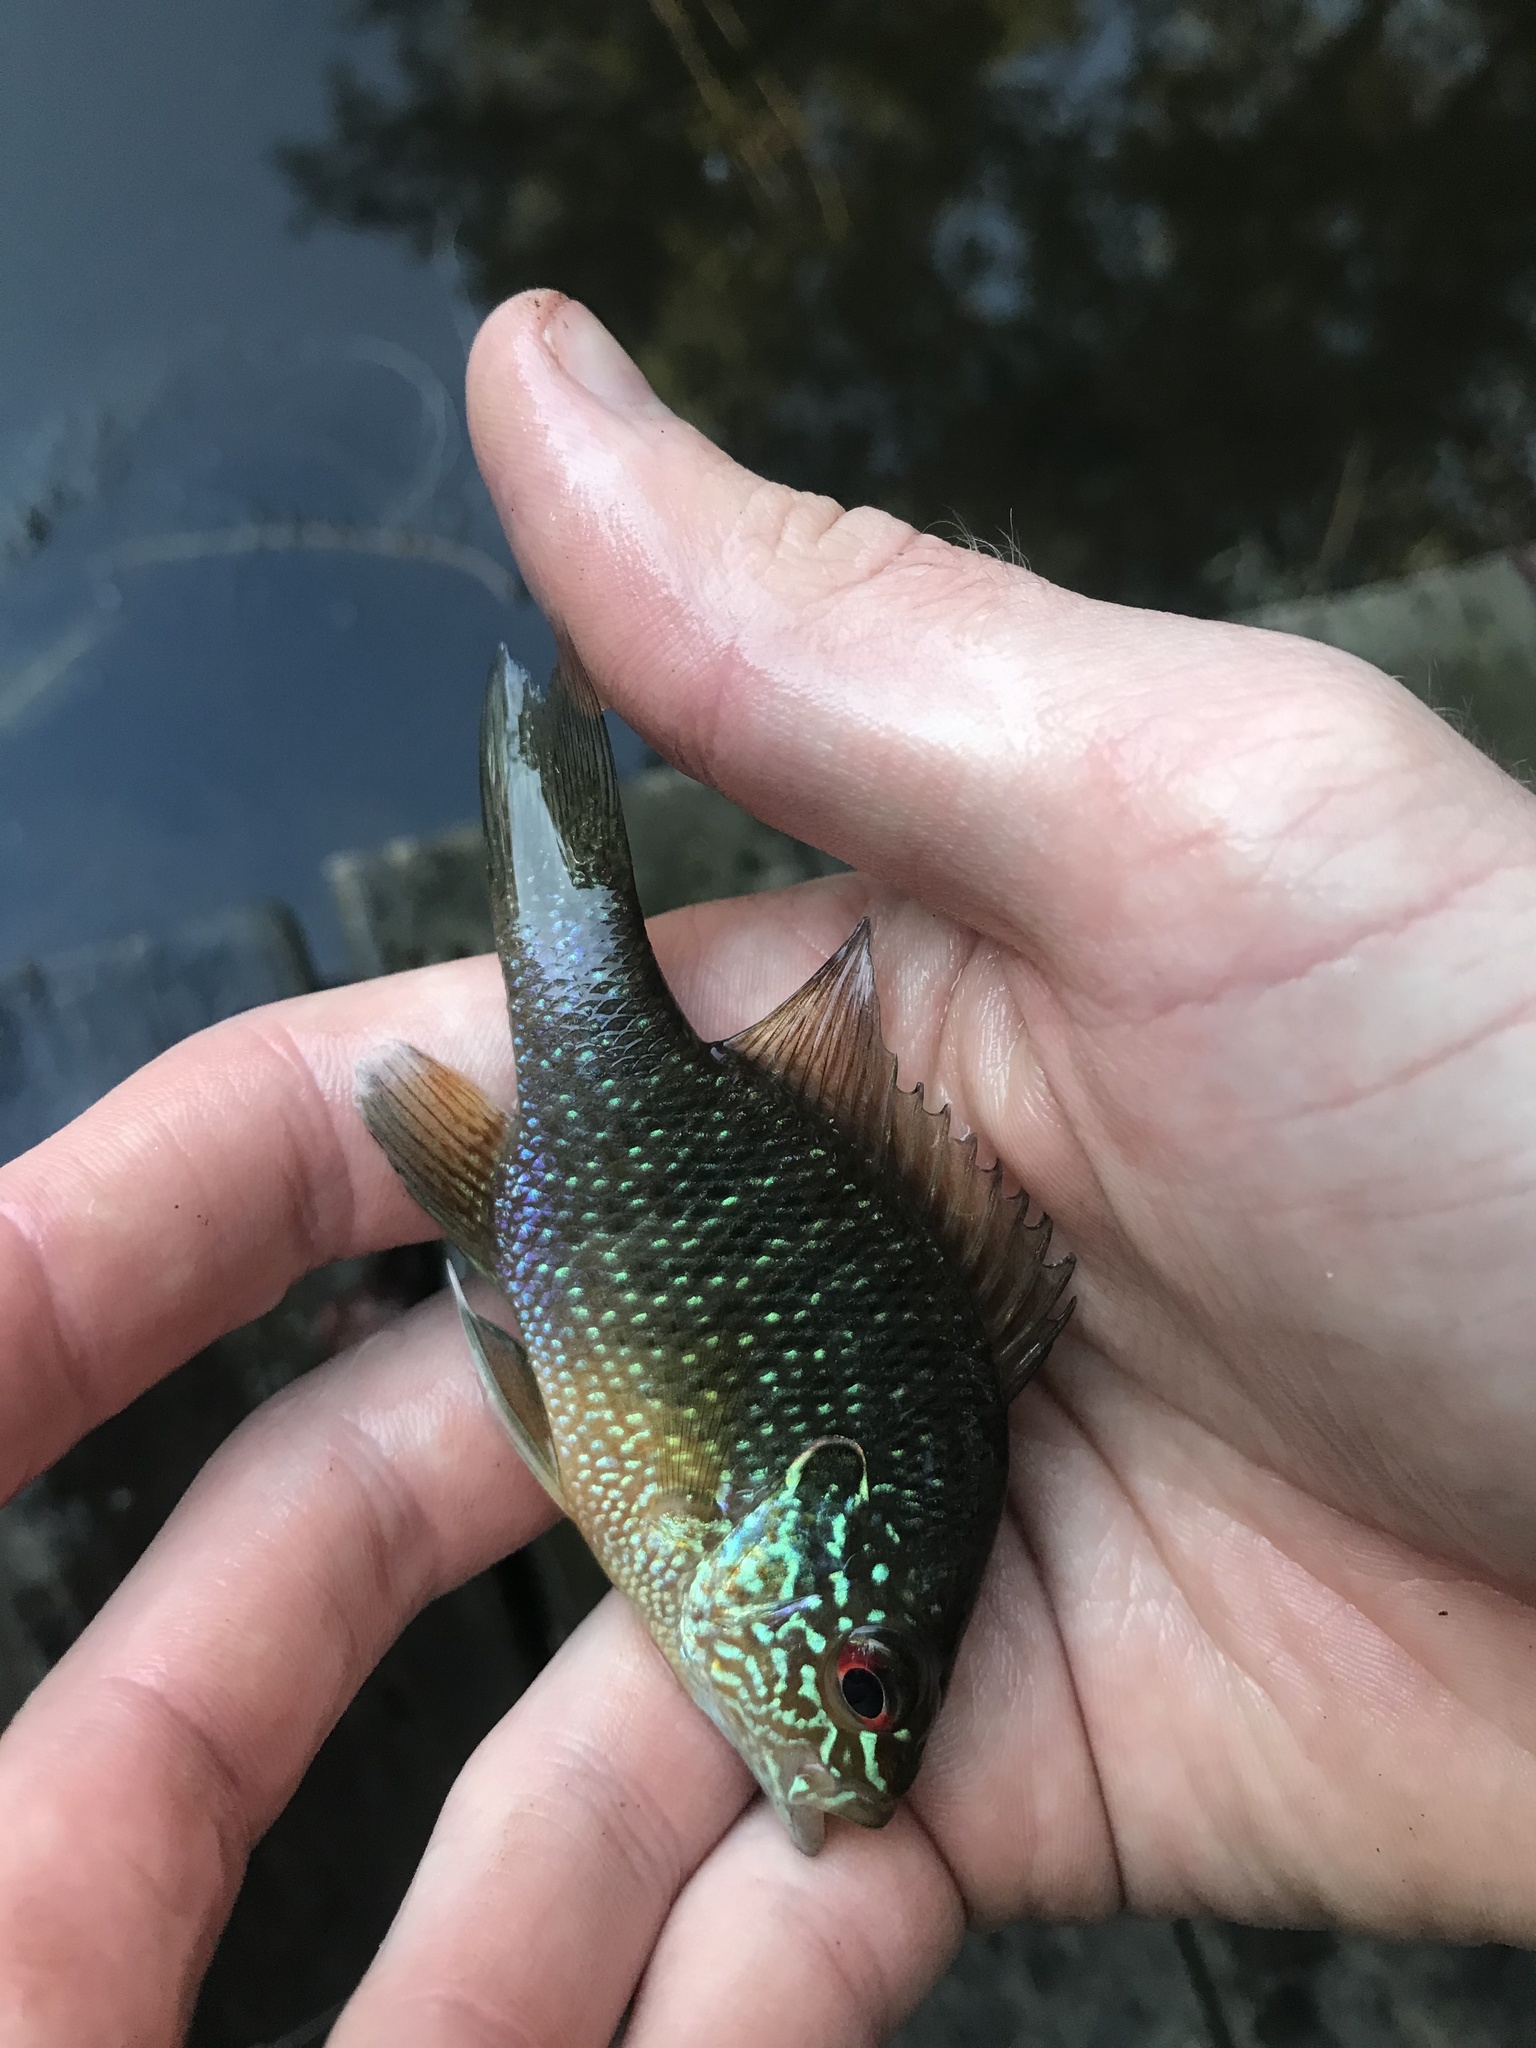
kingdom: Animalia
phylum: Chordata
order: Perciformes
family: Centrarchidae
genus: Lepomis
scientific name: Lepomis marginatus
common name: Dollar sunfish
